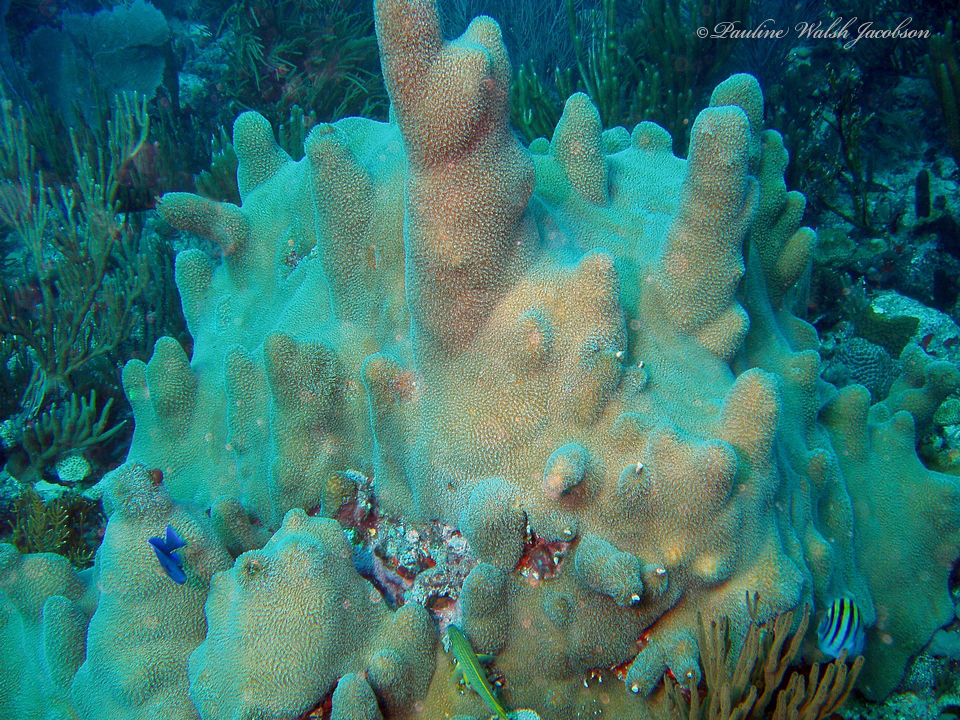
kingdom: Animalia
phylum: Cnidaria
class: Anthozoa
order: Scleractinia
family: Meandrinidae
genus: Dendrogyra
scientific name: Dendrogyra cylindrus
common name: Pillar coral
